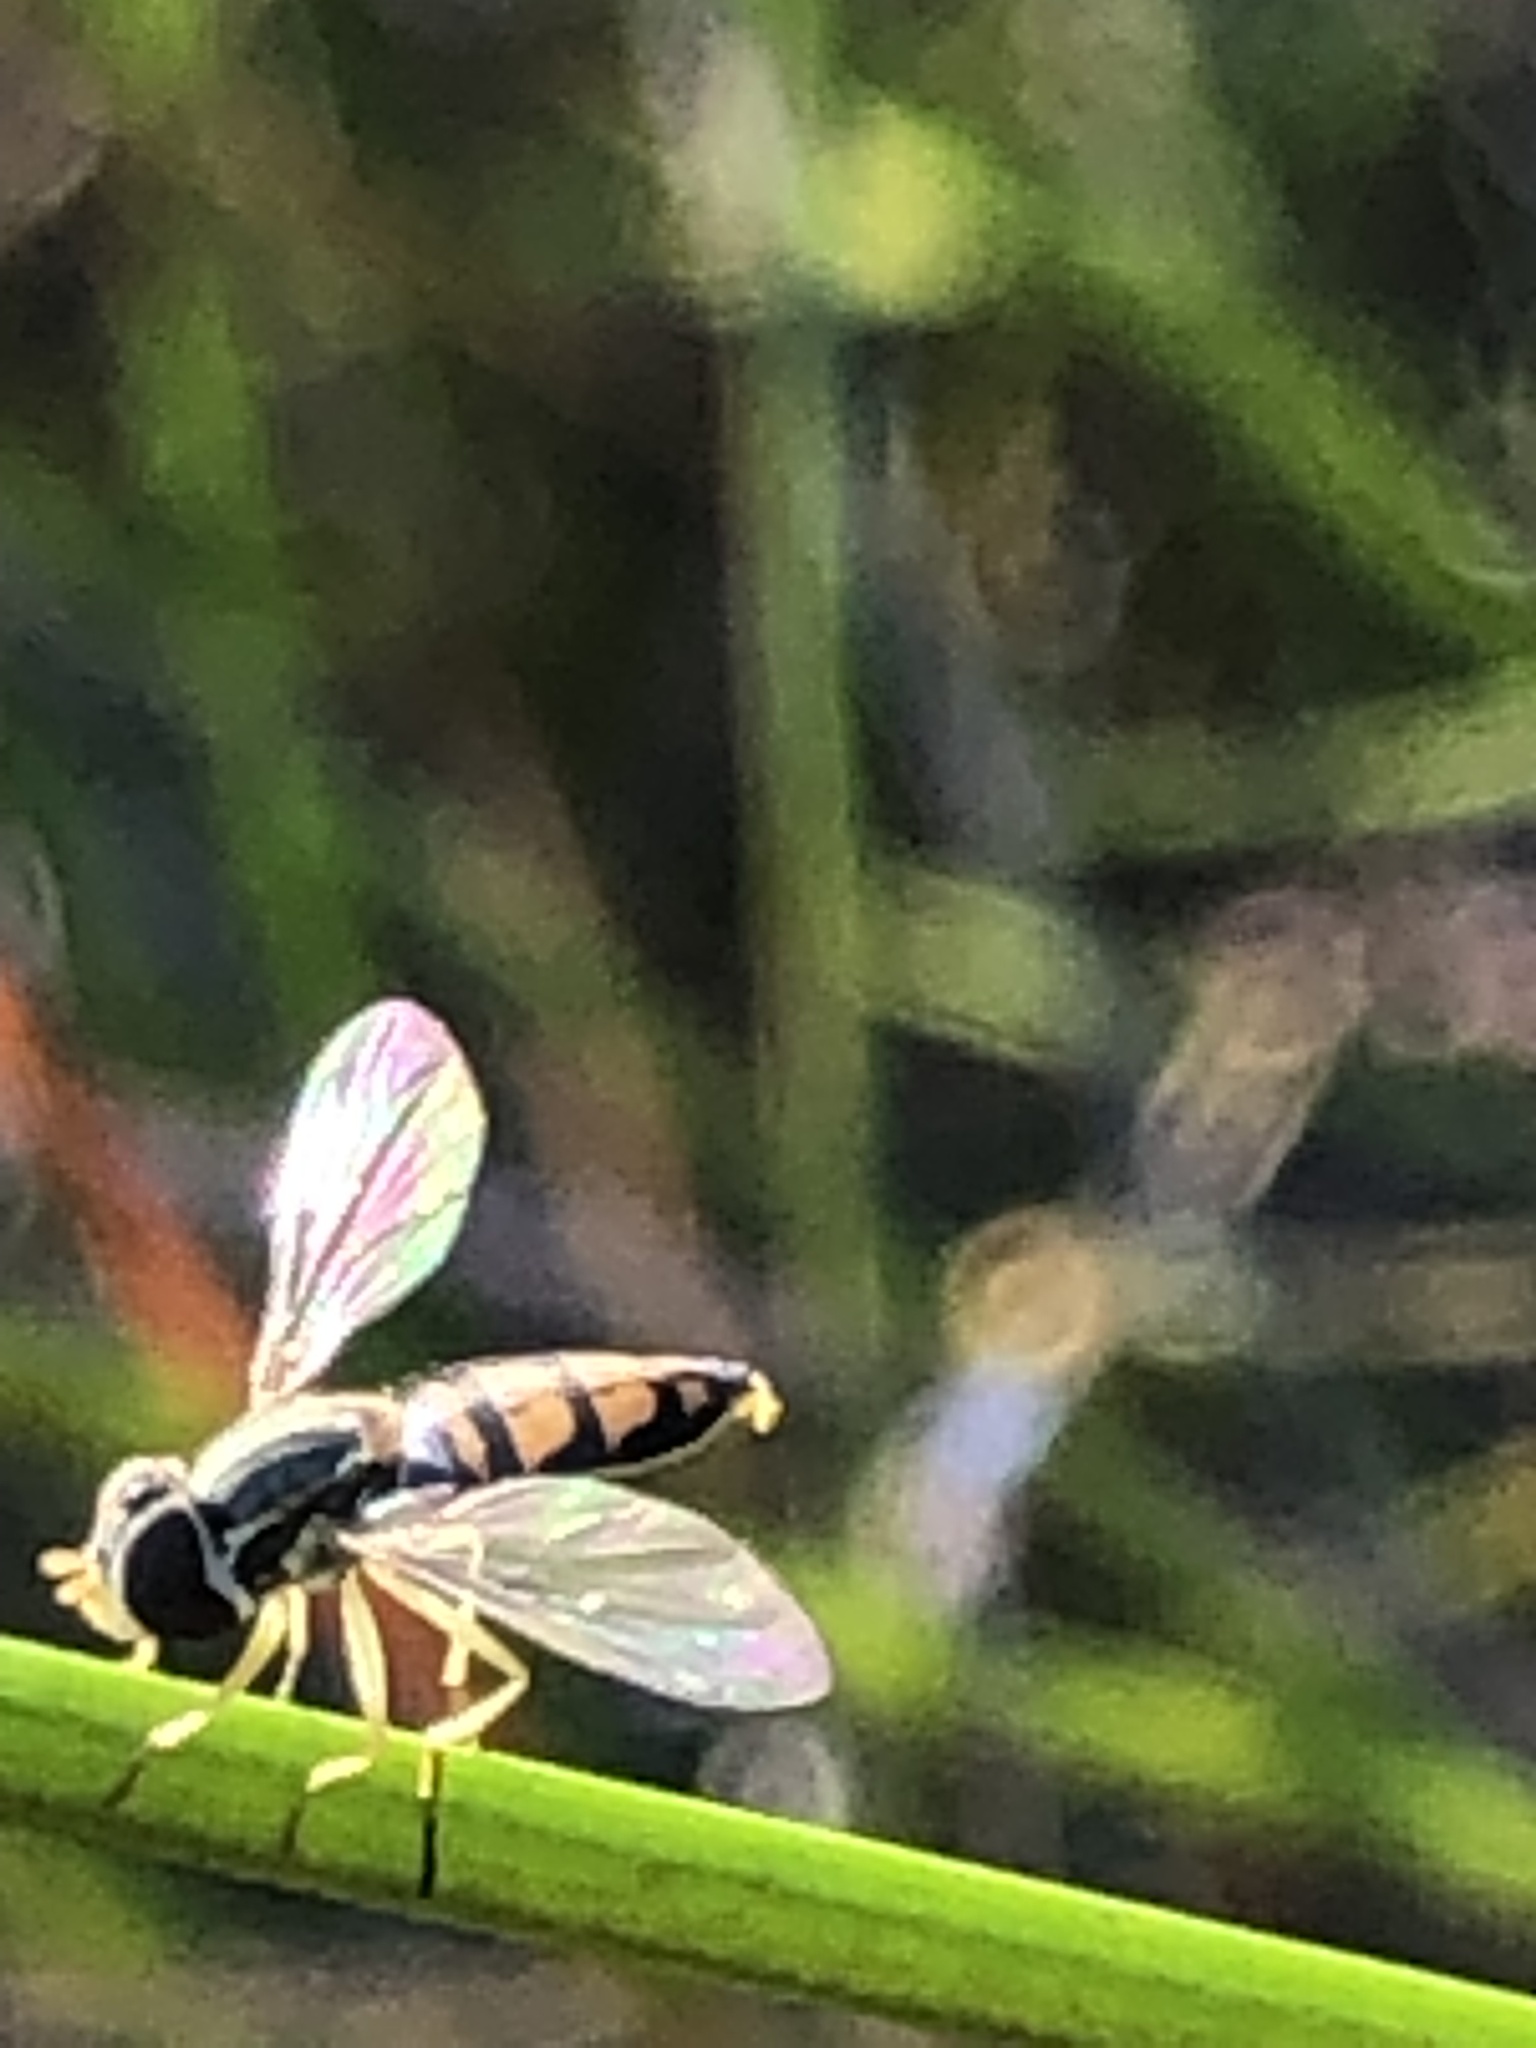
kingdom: Animalia
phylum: Arthropoda
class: Insecta
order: Diptera
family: Syrphidae
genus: Toxomerus
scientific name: Toxomerus marginatus
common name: Syrphid fly
